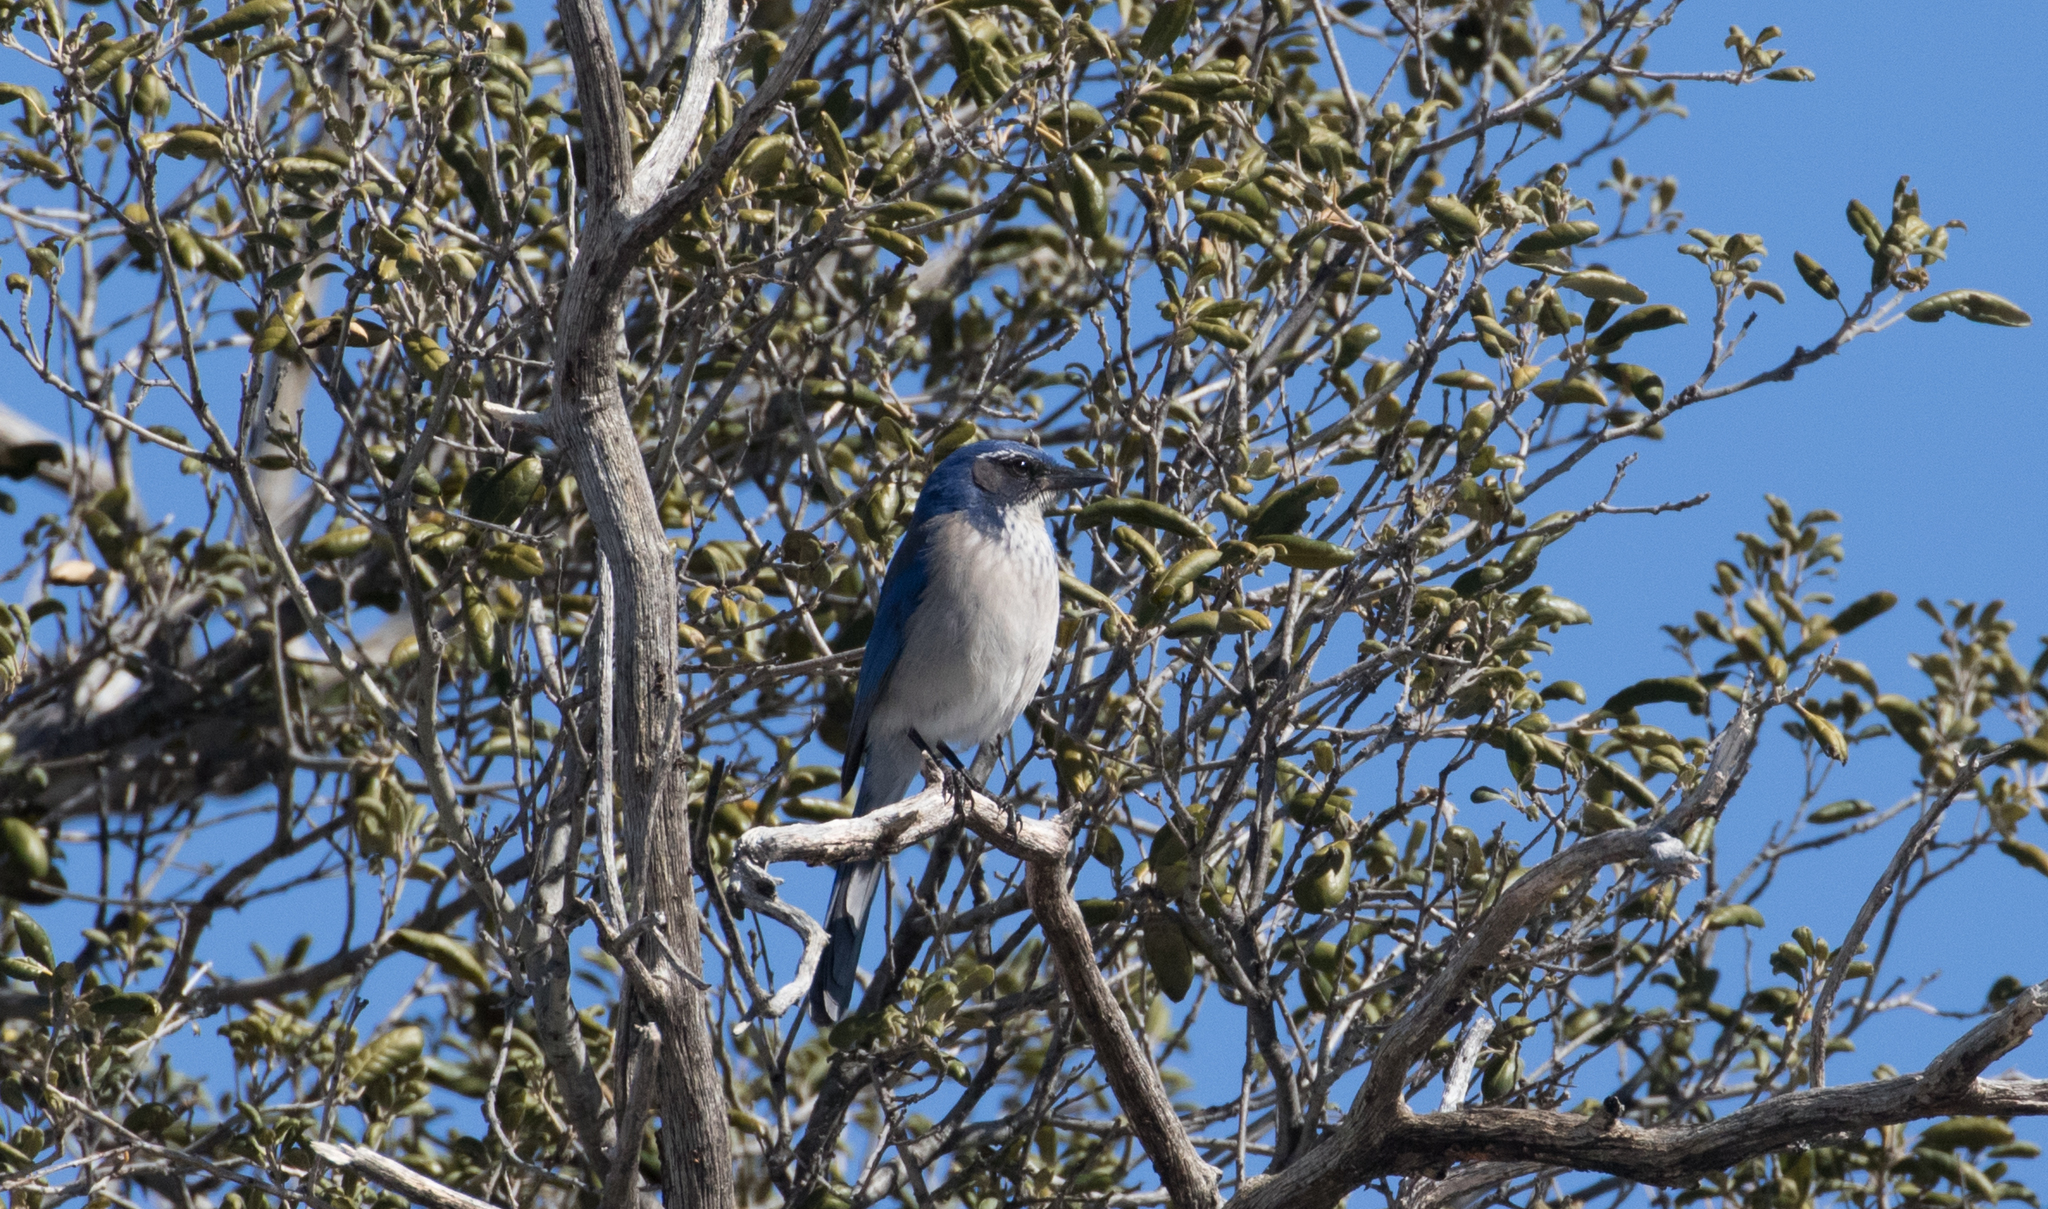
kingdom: Animalia
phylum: Chordata
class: Aves
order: Passeriformes
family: Corvidae
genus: Aphelocoma
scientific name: Aphelocoma californica
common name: California scrub-jay
